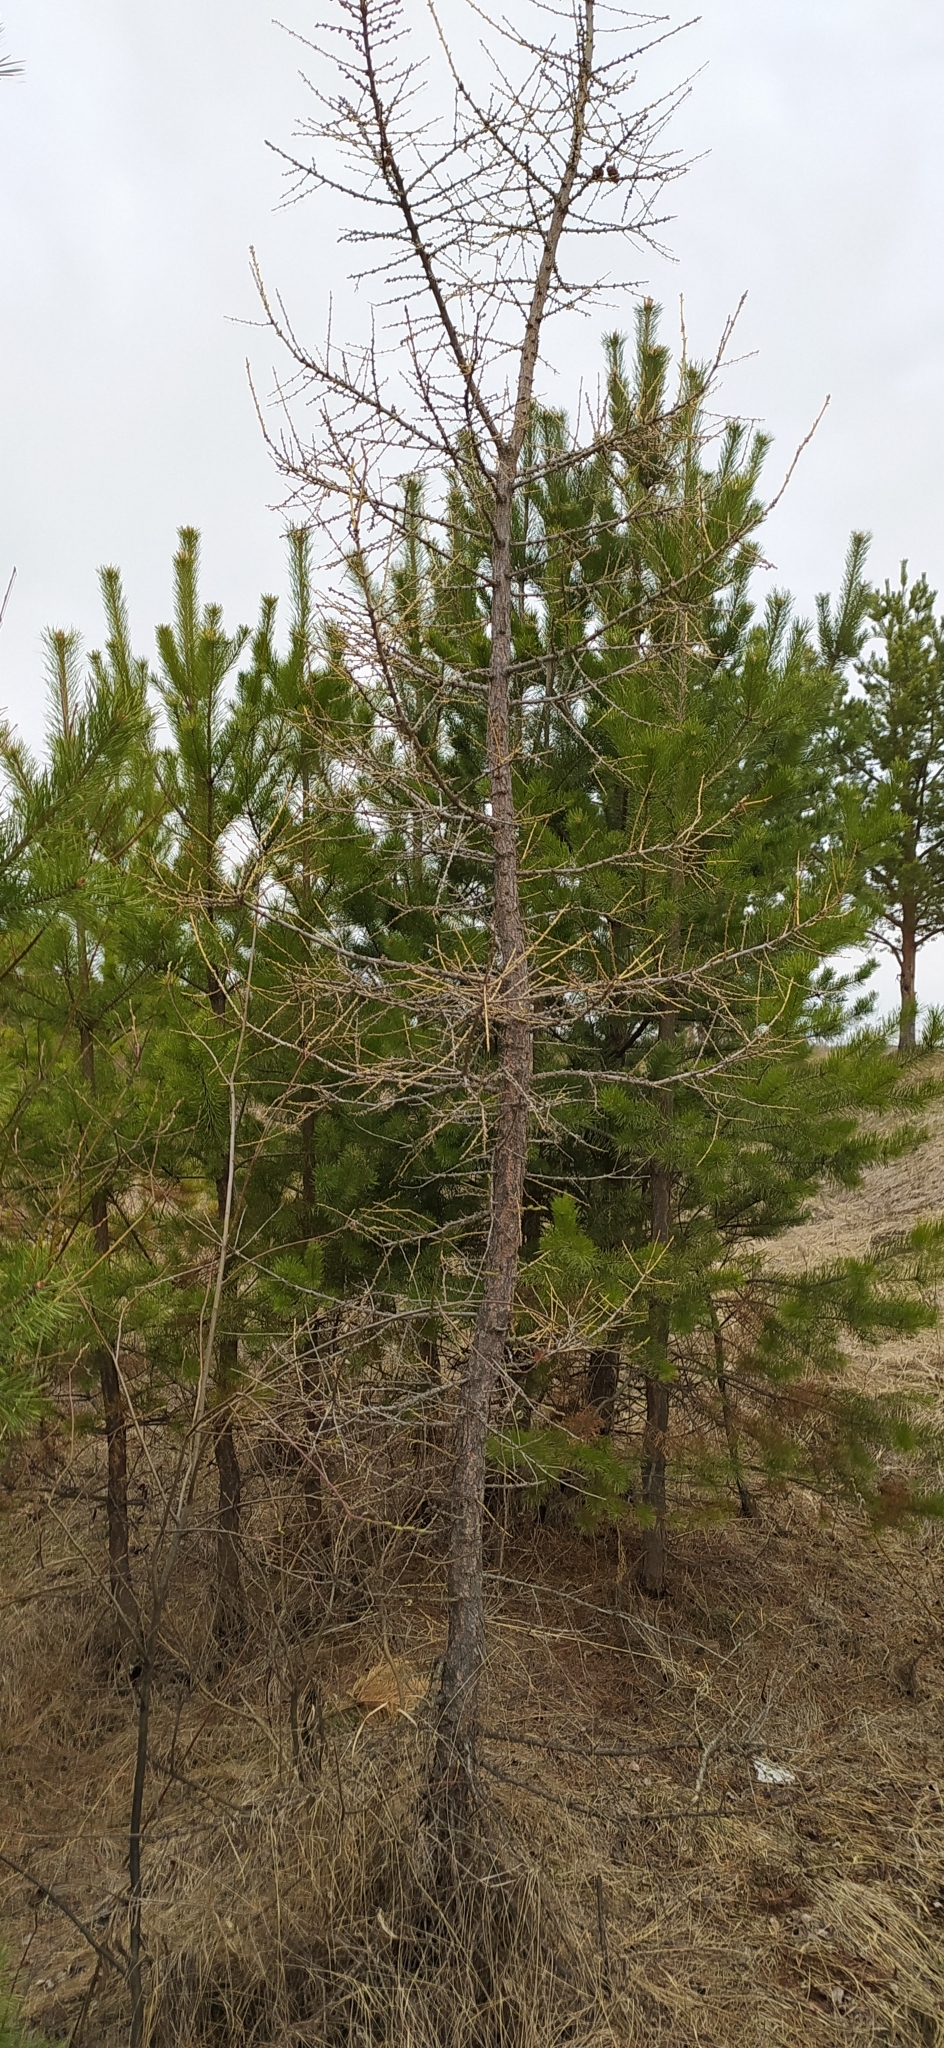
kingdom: Plantae
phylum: Tracheophyta
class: Pinopsida
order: Pinales
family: Pinaceae
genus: Larix
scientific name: Larix sibirica
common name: Siberian larch
